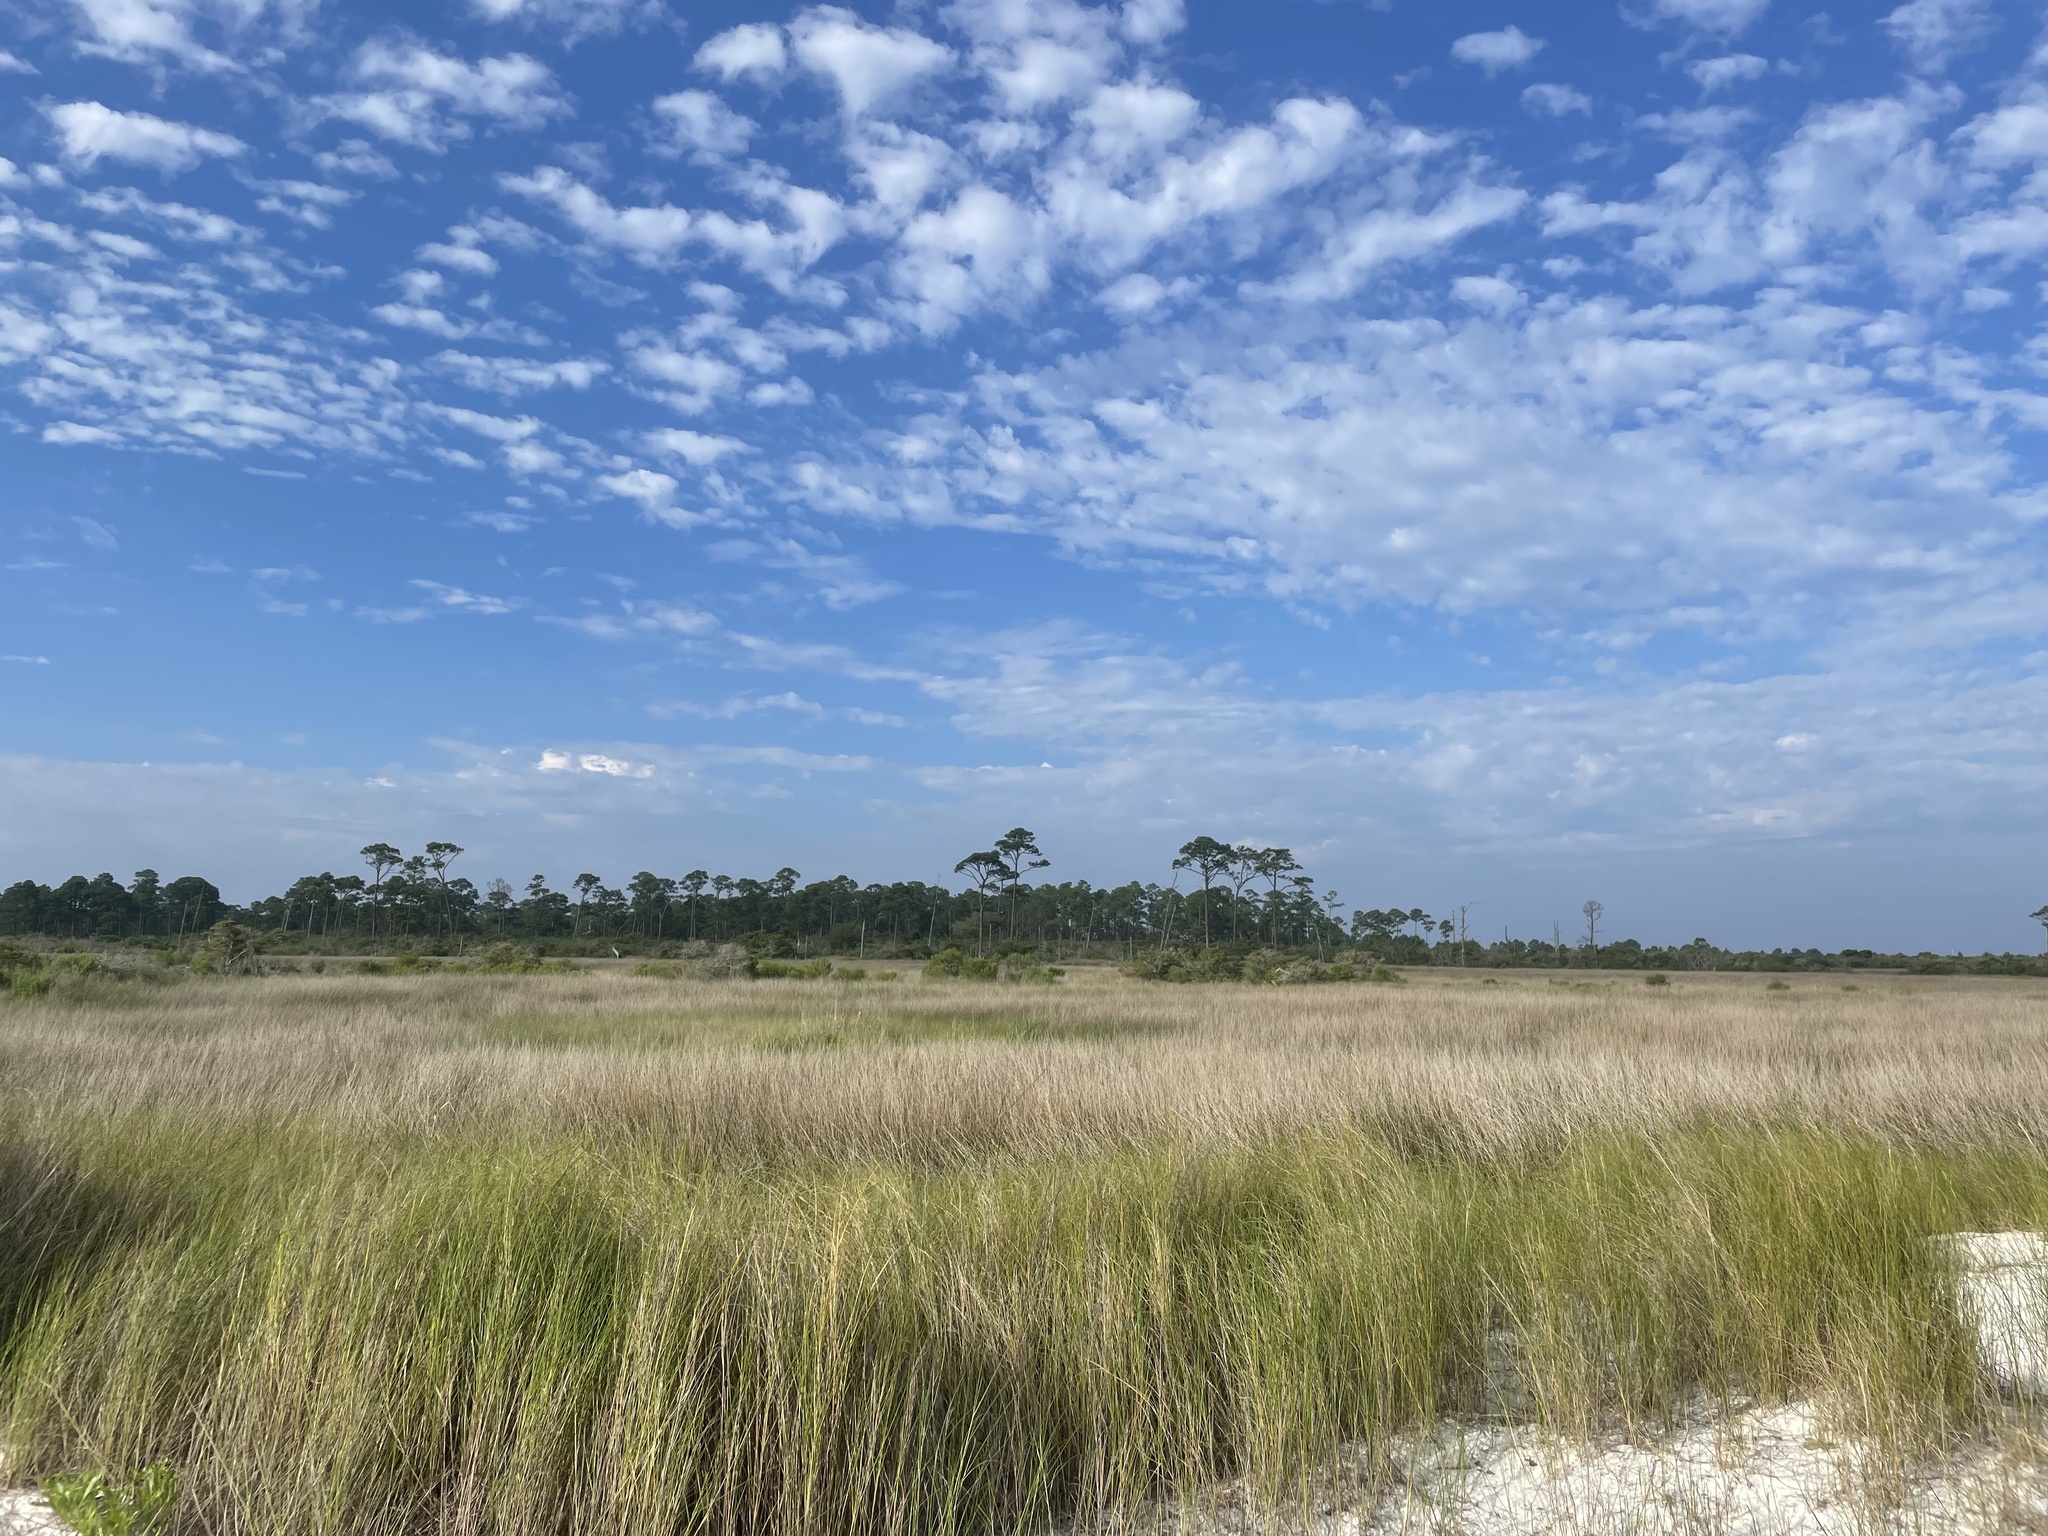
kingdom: Plantae
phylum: Tracheophyta
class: Liliopsida
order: Poales
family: Poaceae
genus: Sporobolus
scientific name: Sporobolus pumilus
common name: Highwater grass
